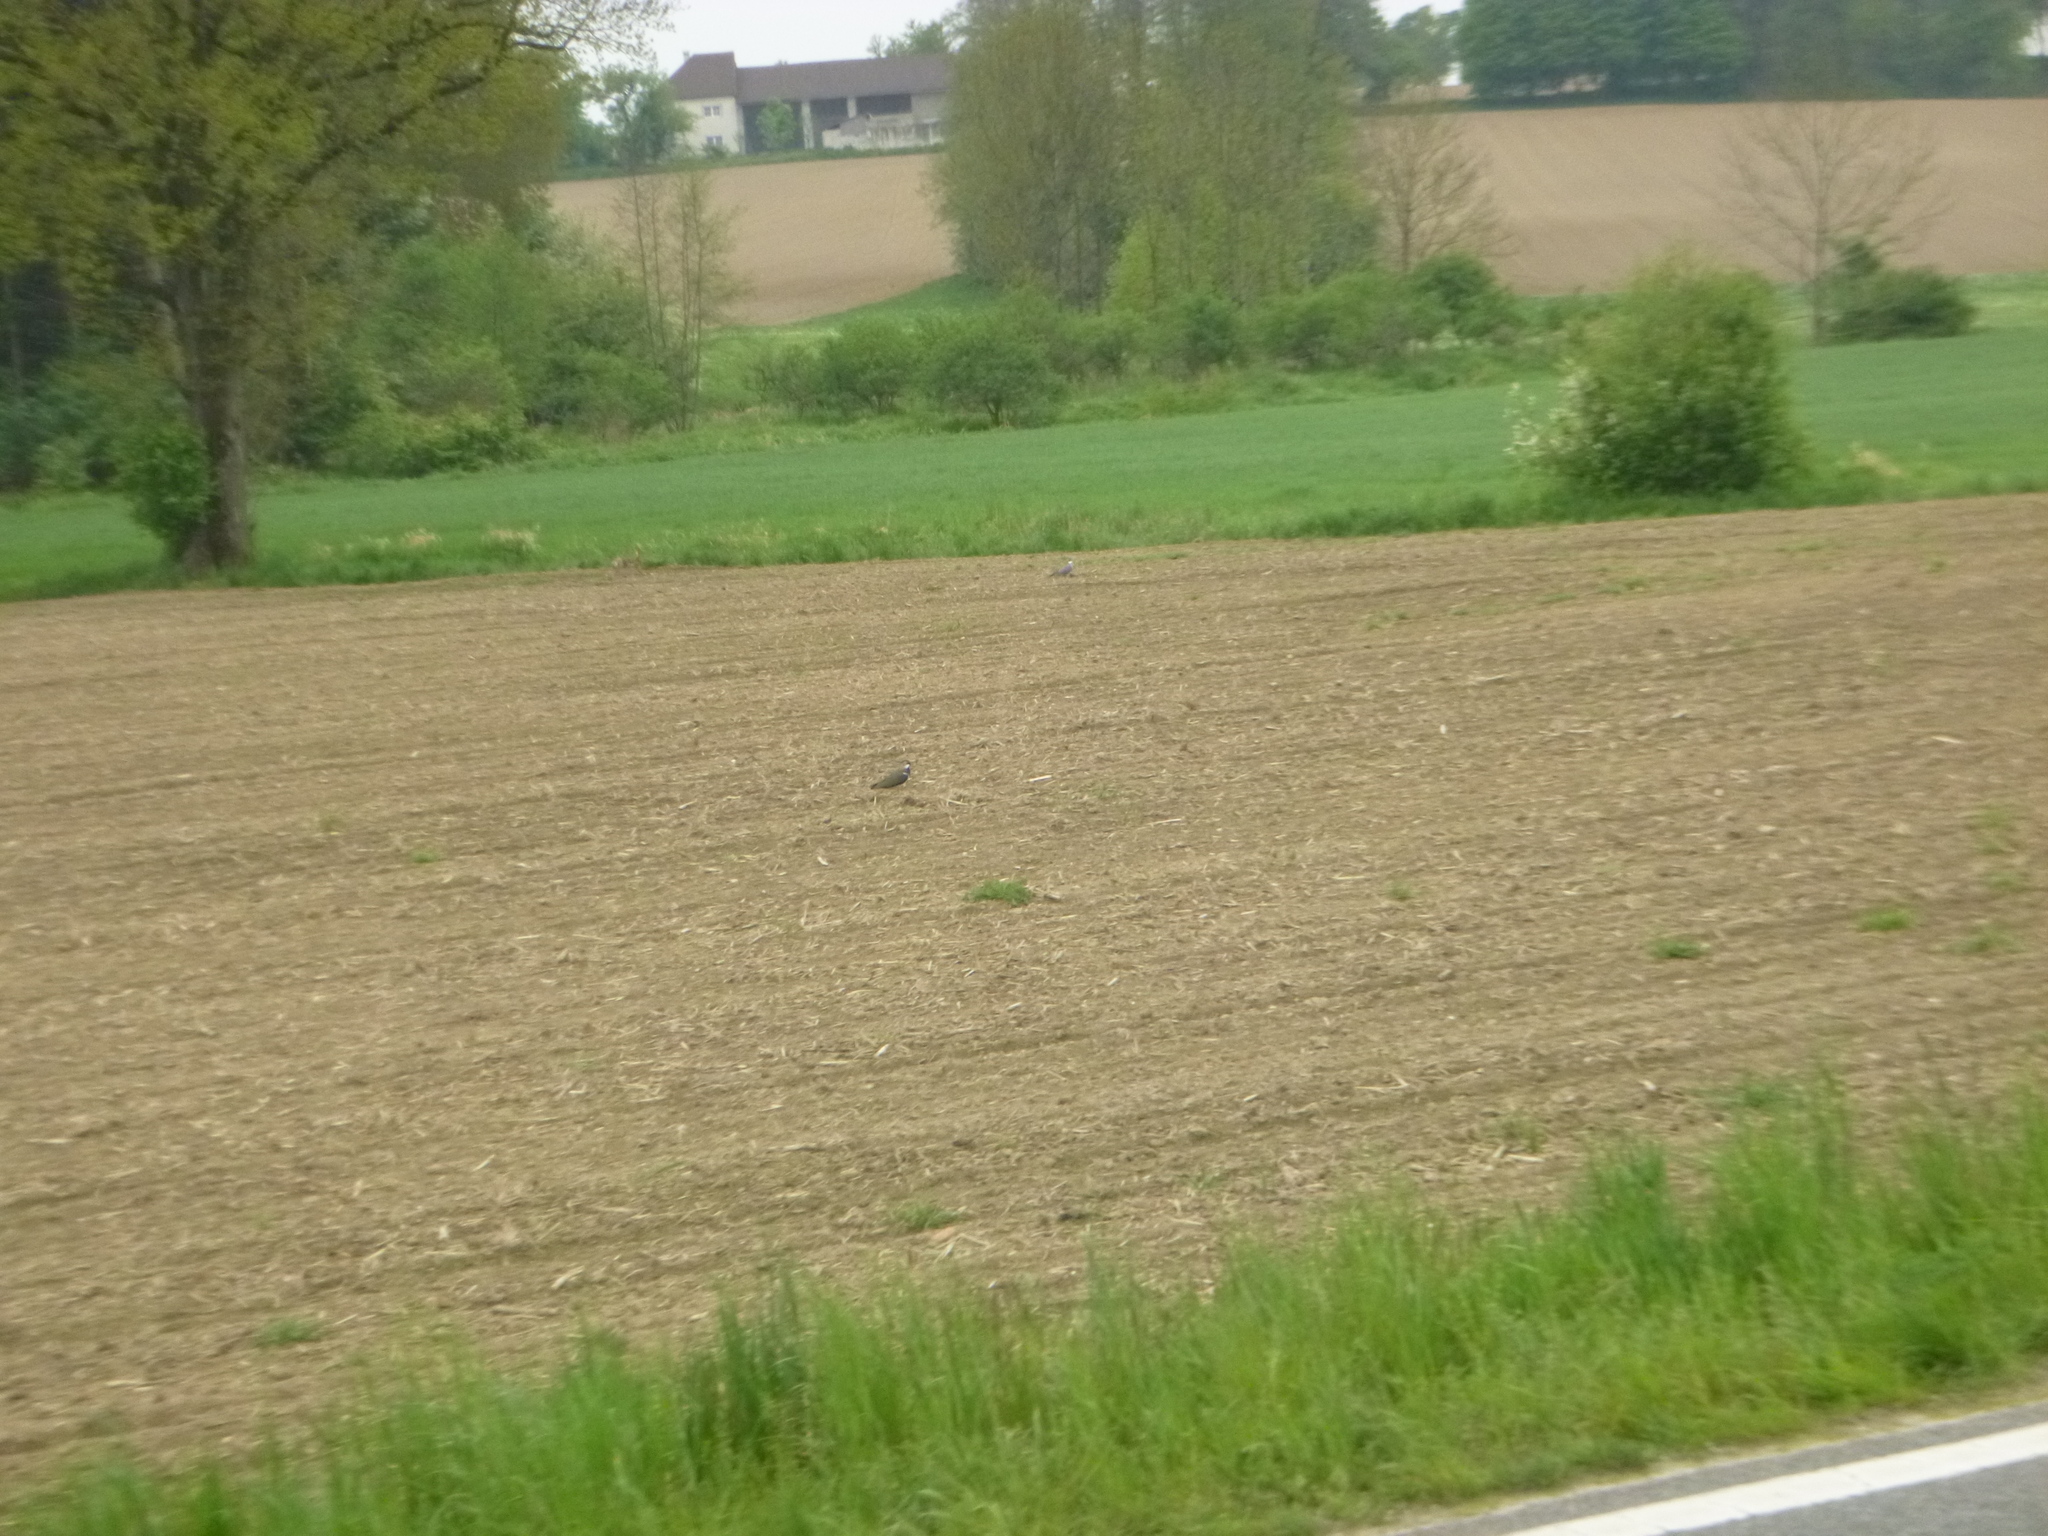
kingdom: Animalia
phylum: Chordata
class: Aves
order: Charadriiformes
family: Charadriidae
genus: Vanellus
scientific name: Vanellus vanellus
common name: Northern lapwing
